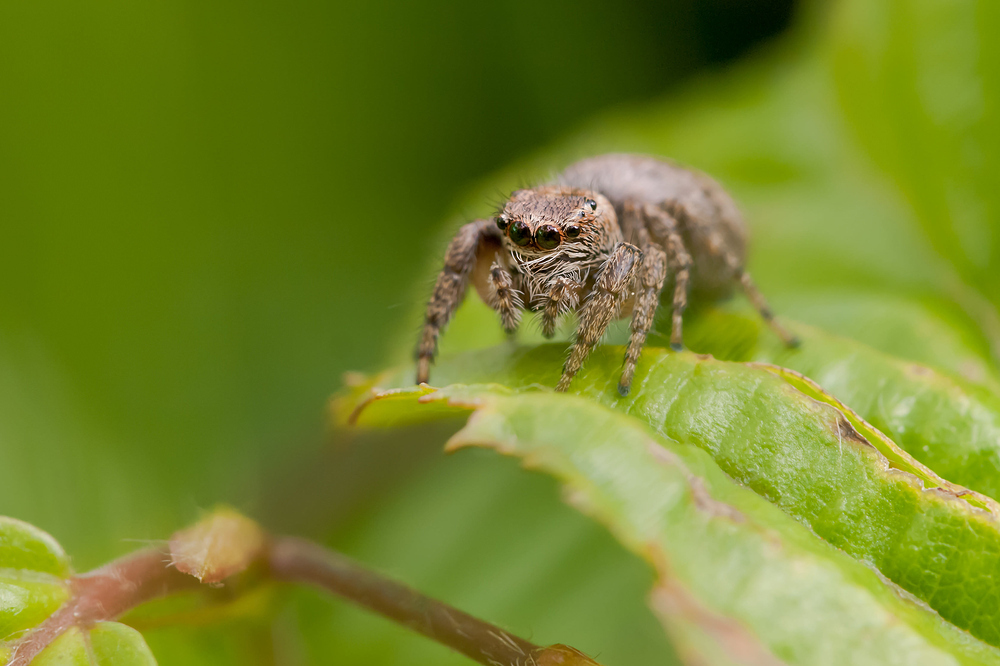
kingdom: Animalia
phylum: Arthropoda
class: Arachnida
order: Araneae
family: Salticidae
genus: Evarcha
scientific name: Evarcha arcuata
